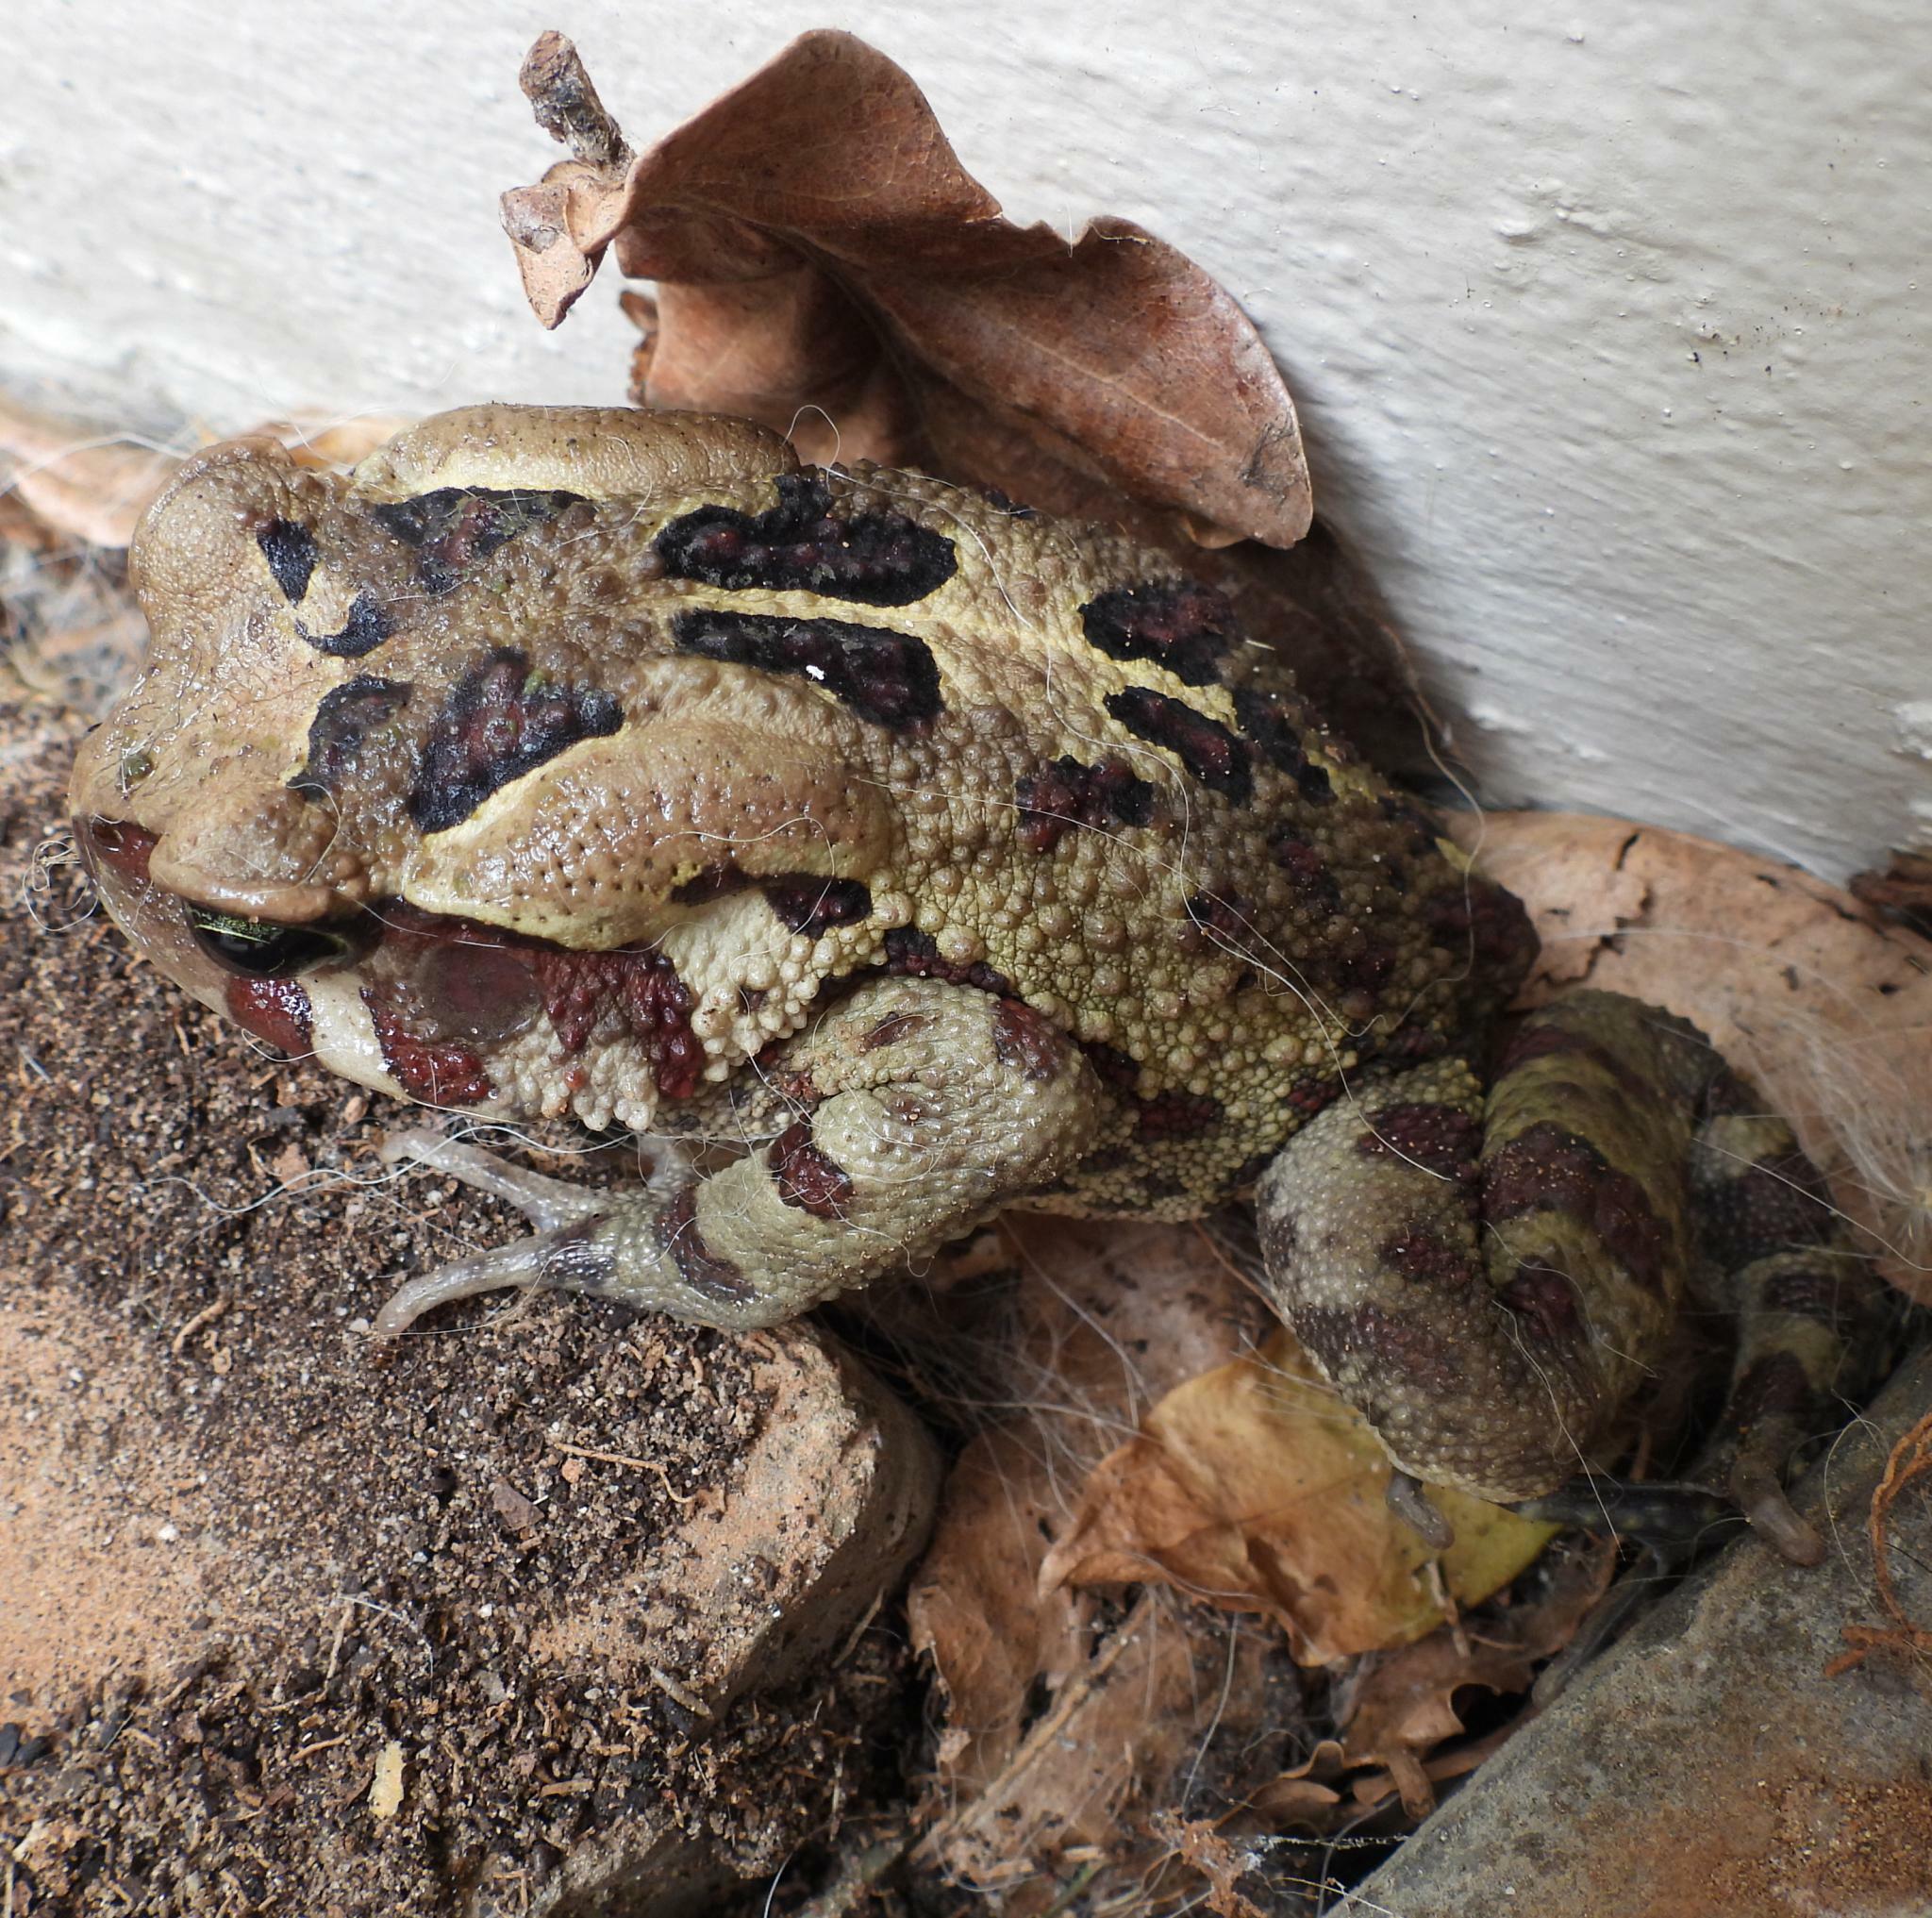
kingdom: Animalia
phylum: Chordata
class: Amphibia
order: Anura
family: Bufonidae
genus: Sclerophrys
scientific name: Sclerophrys pardalis
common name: Eastern leopard toad
